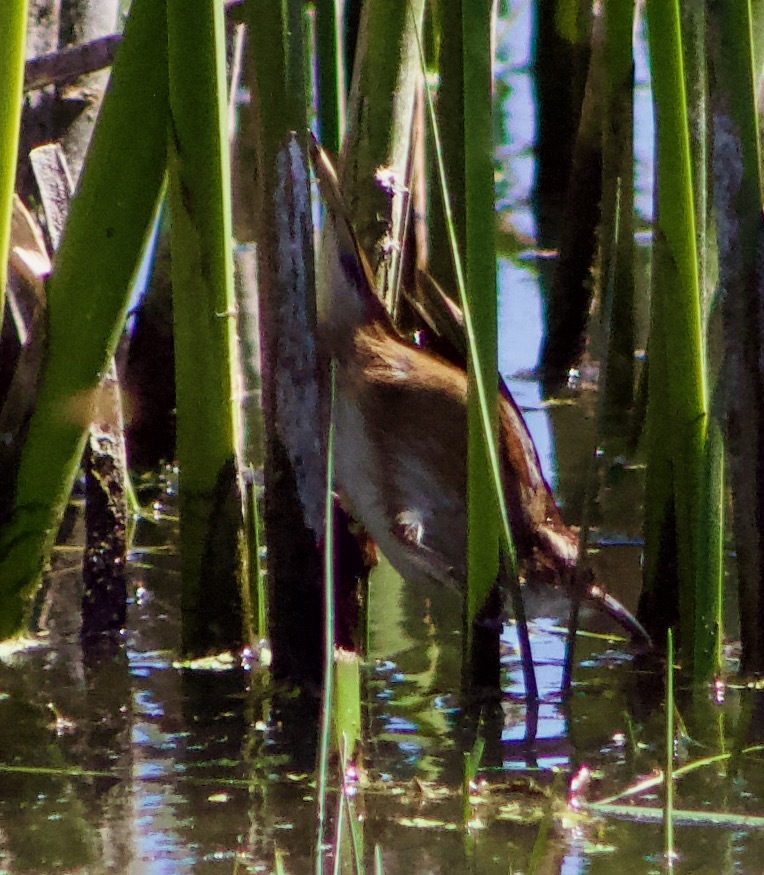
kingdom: Animalia
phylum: Chordata
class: Aves
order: Passeriformes
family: Furnariidae
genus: Phleocryptes
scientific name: Phleocryptes melanops
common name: Wren-like rushbird
